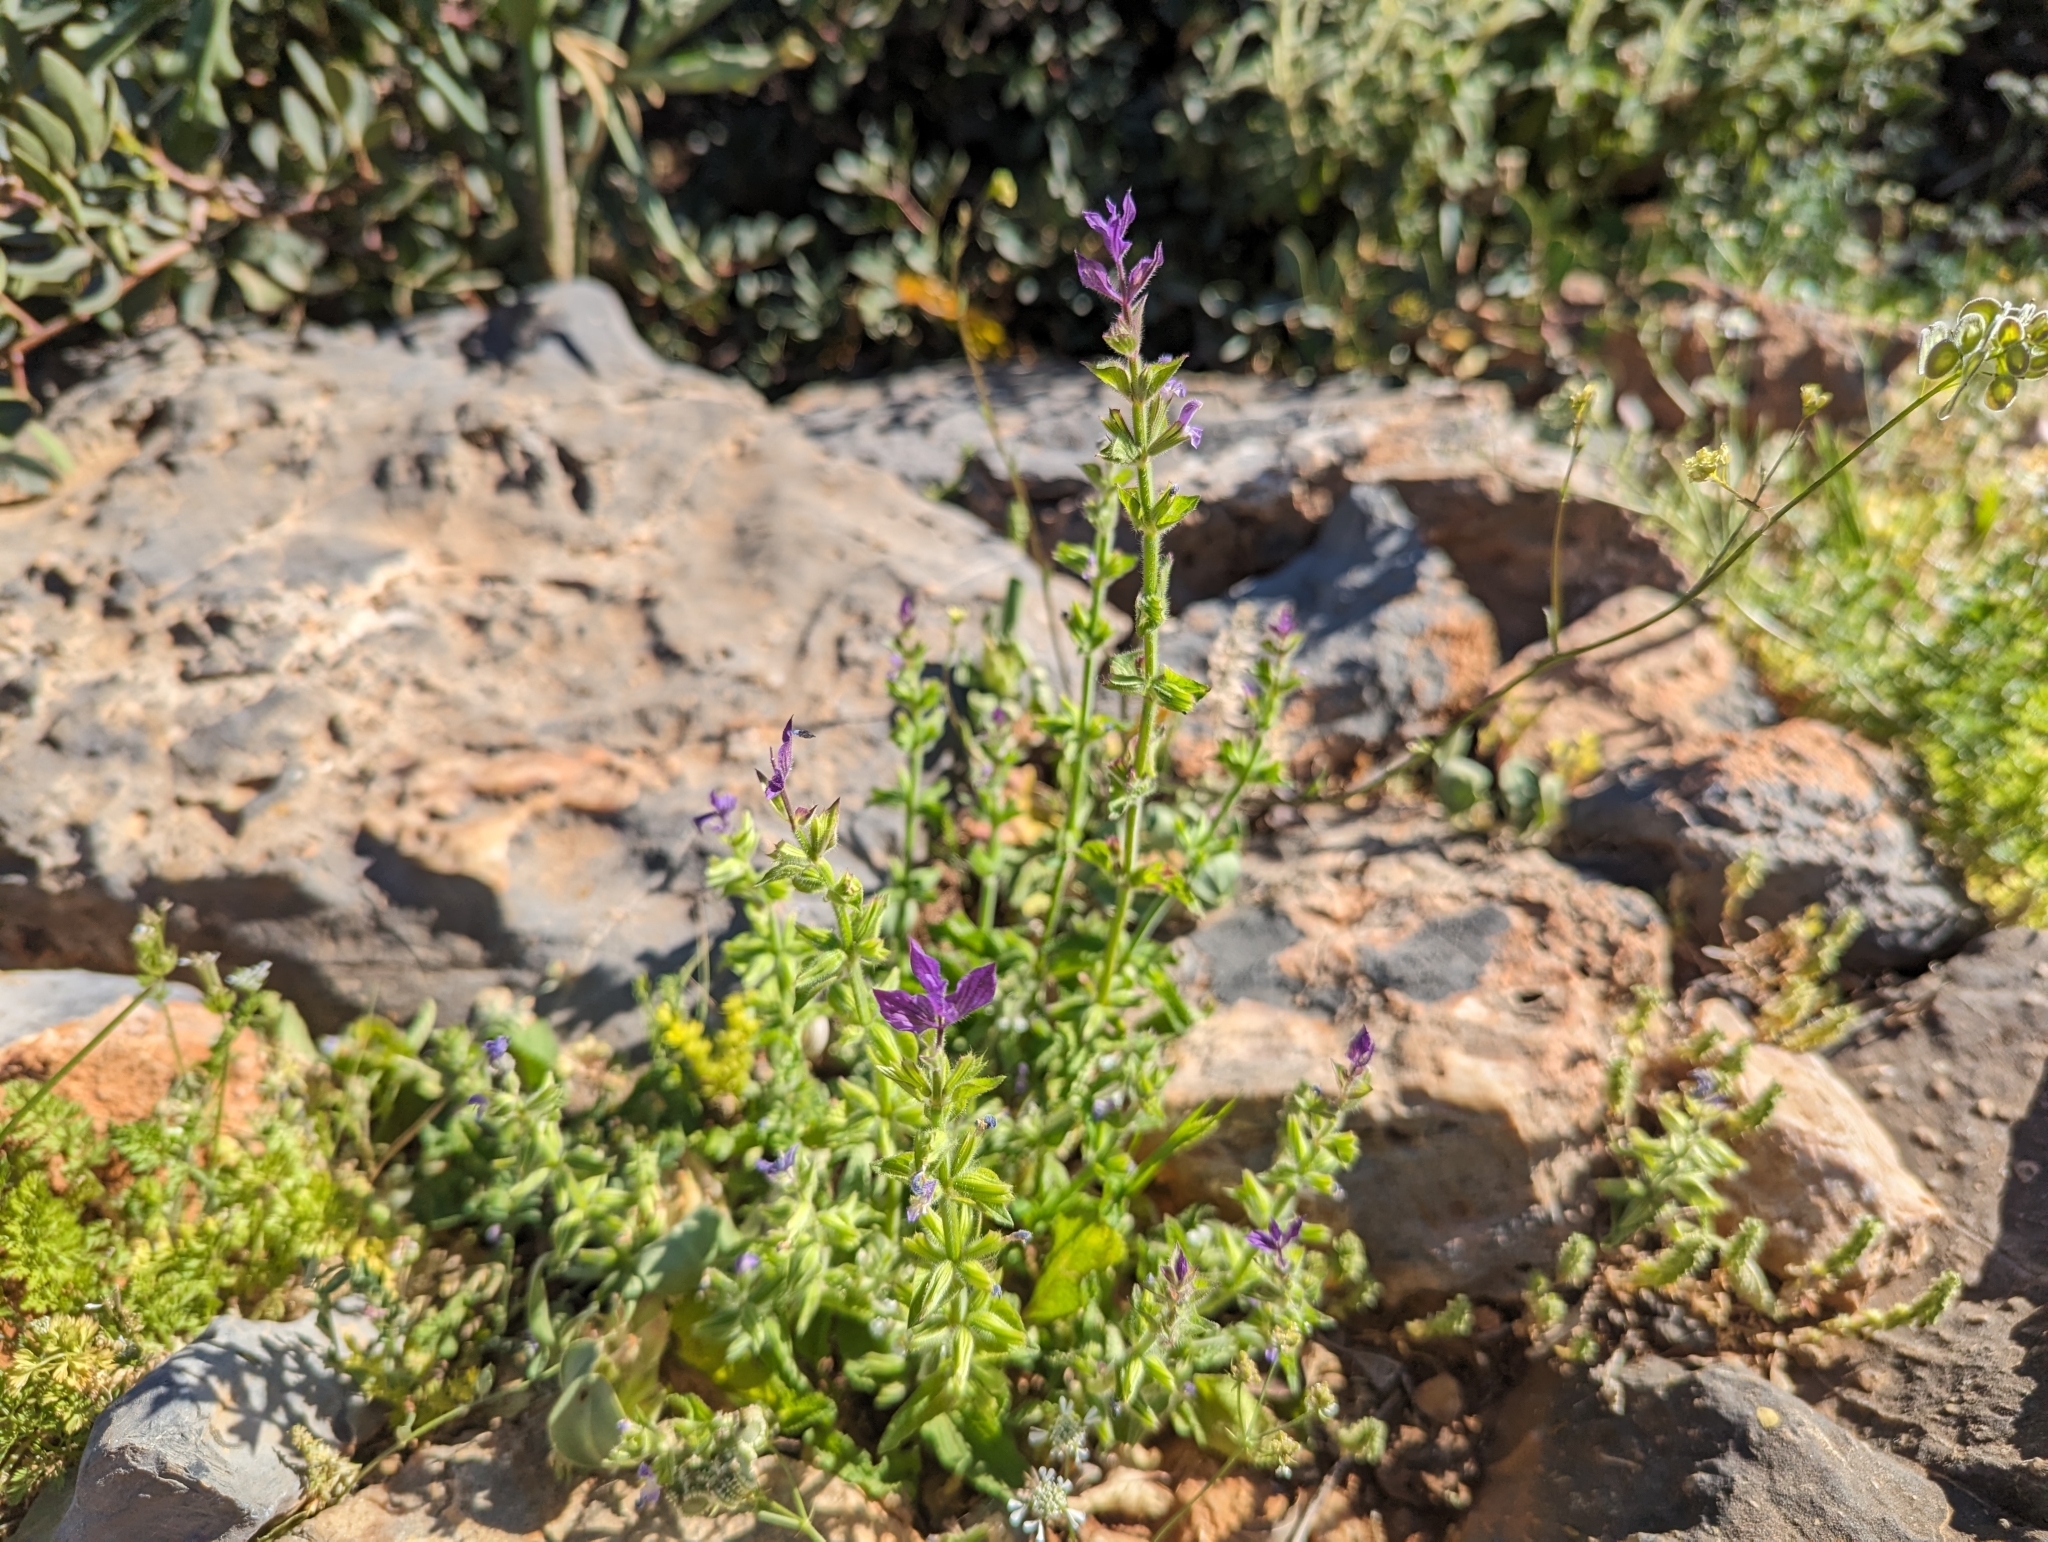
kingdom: Plantae
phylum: Tracheophyta
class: Magnoliopsida
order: Lamiales
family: Lamiaceae
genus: Salvia
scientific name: Salvia viridis
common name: Annual clary
